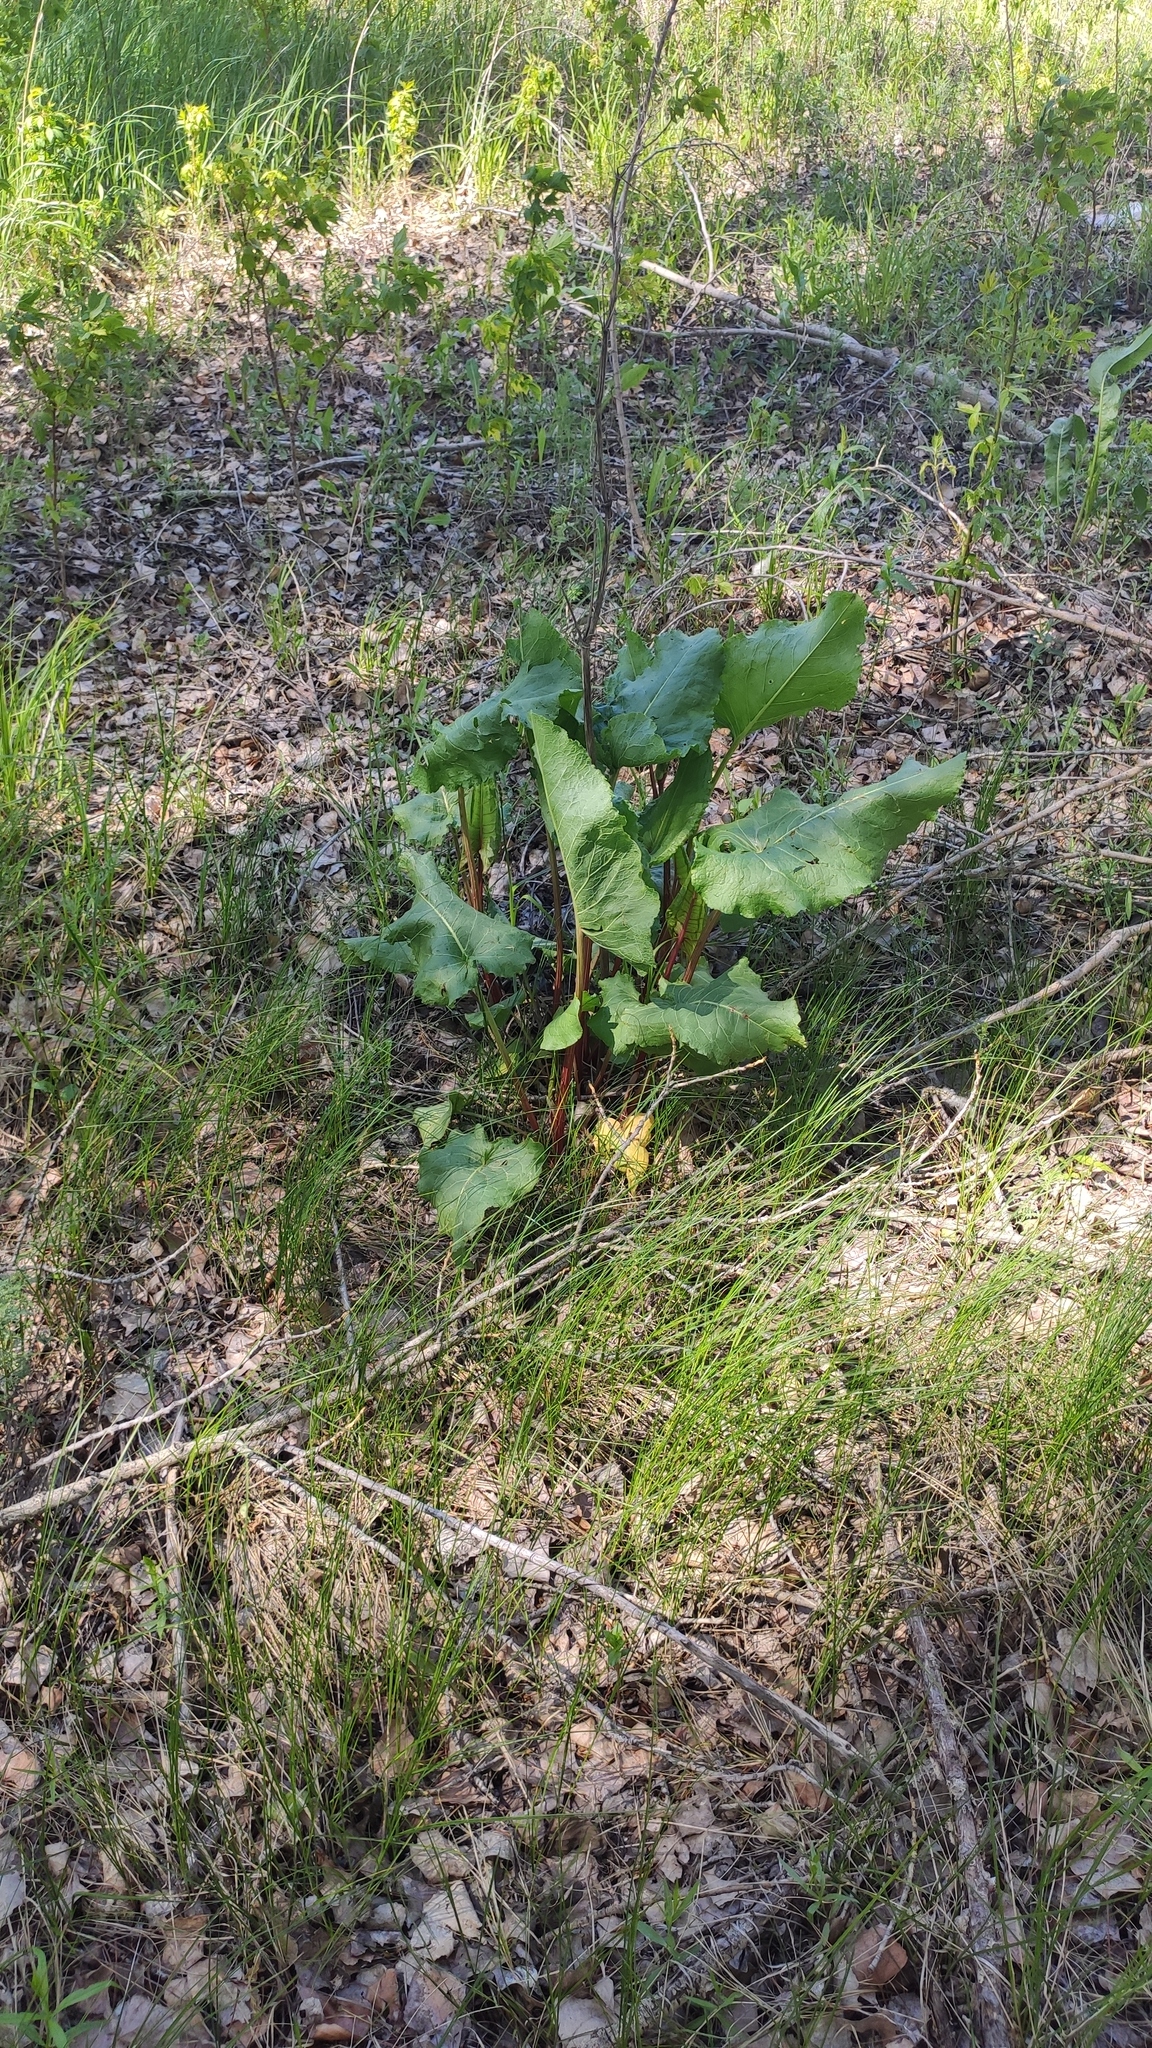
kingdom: Plantae
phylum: Tracheophyta
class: Magnoliopsida
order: Caryophyllales
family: Polygonaceae
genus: Rumex
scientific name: Rumex confertus
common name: Russian dock
